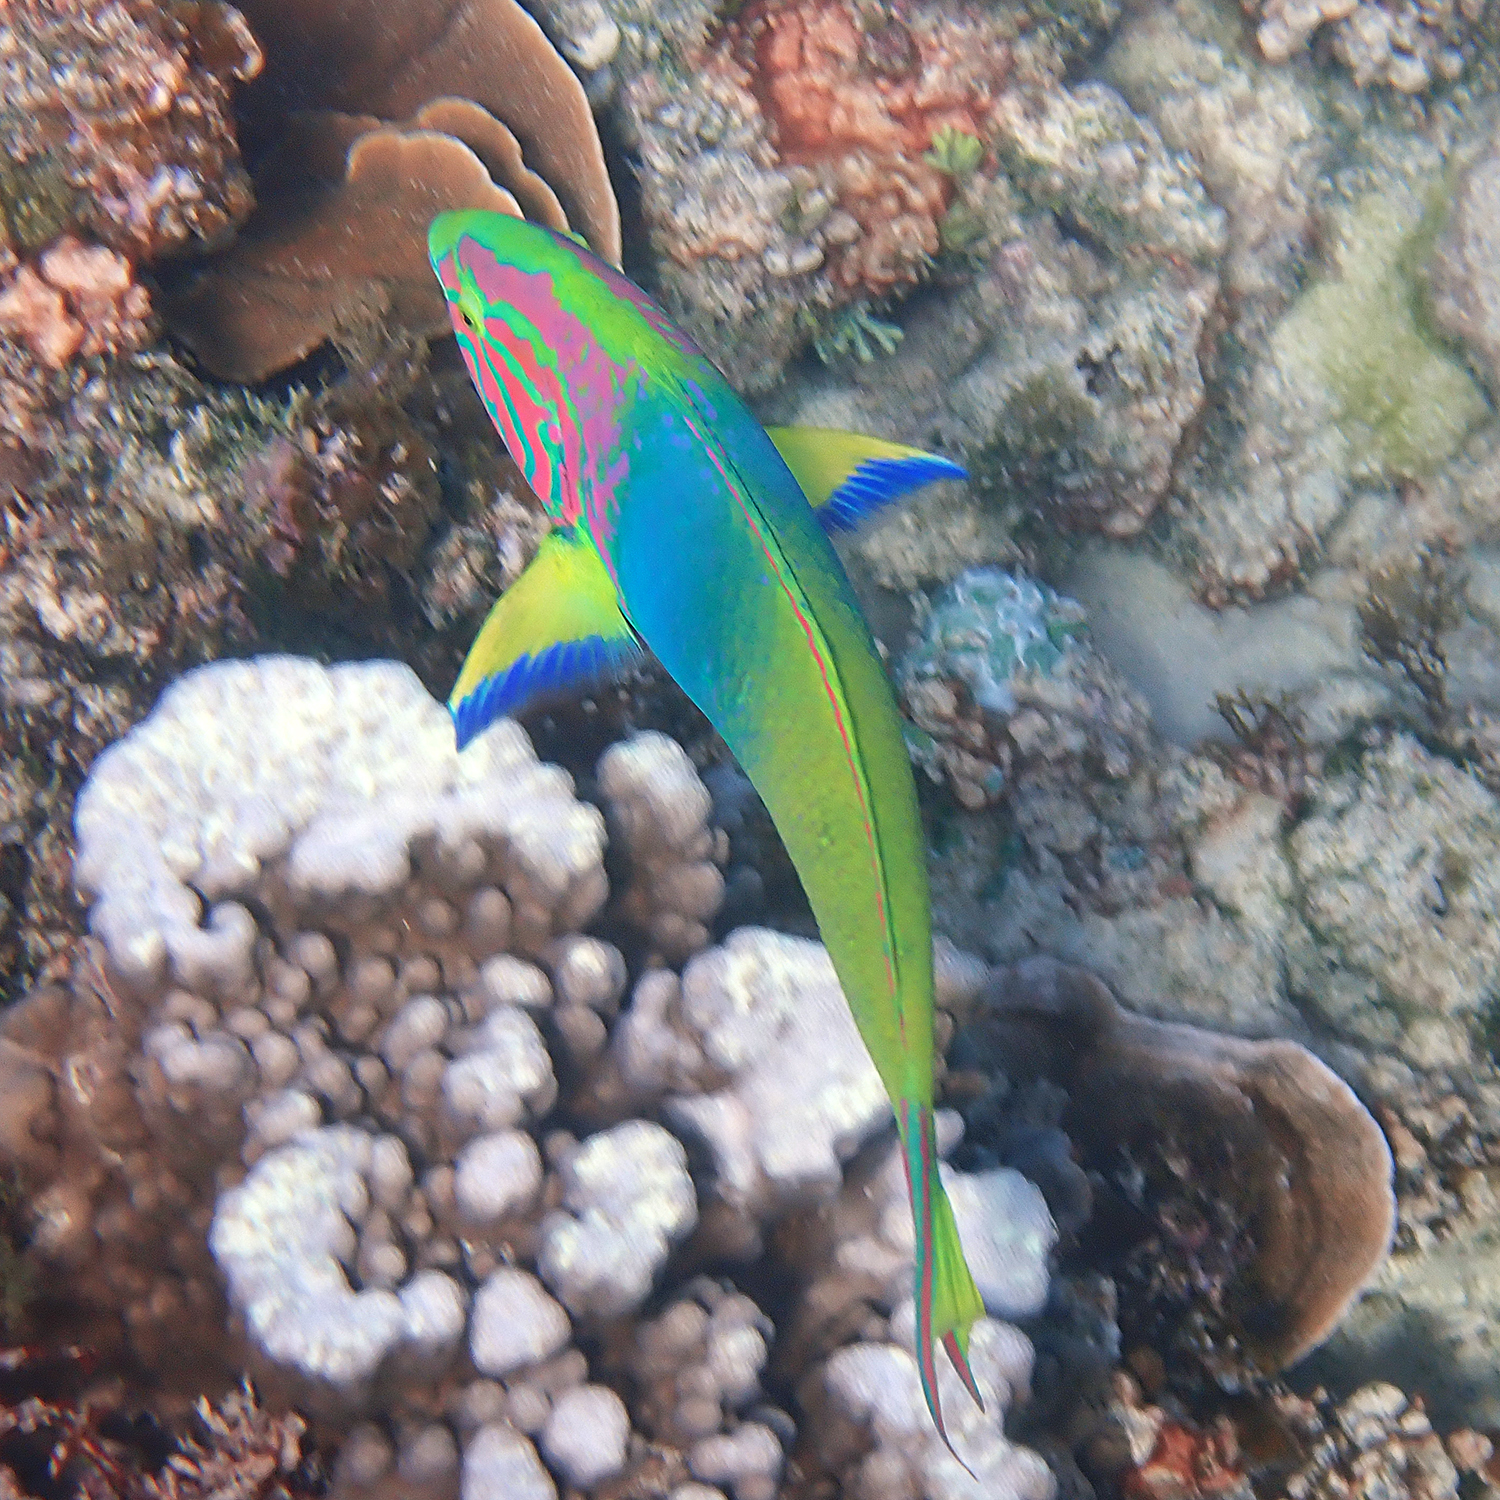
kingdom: Animalia
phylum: Chordata
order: Perciformes
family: Labridae
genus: Thalassoma
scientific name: Thalassoma lutescens
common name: Green moon wrasse
